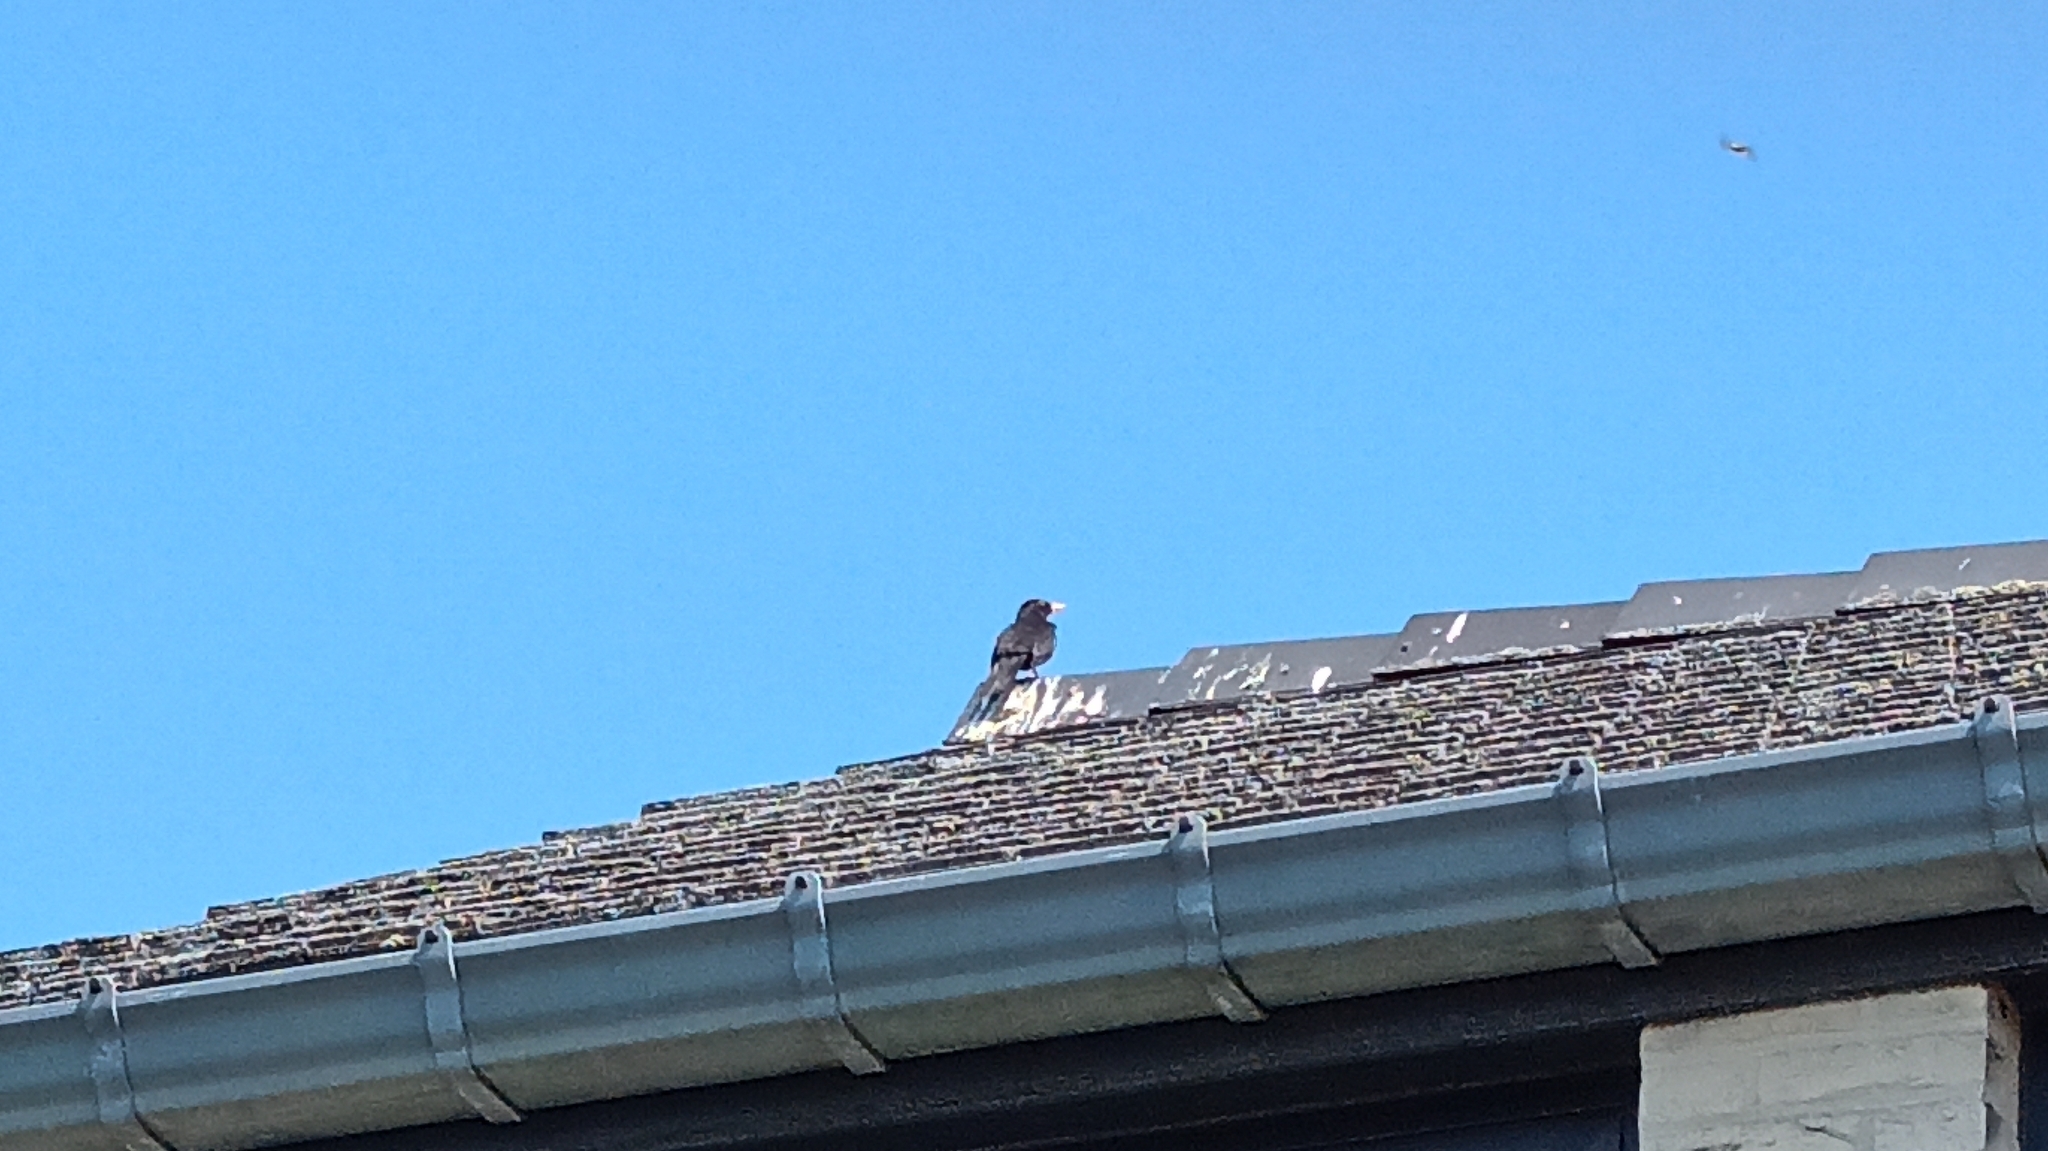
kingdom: Animalia
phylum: Chordata
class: Aves
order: Passeriformes
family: Turdidae
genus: Turdus
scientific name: Turdus merula
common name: Common blackbird
